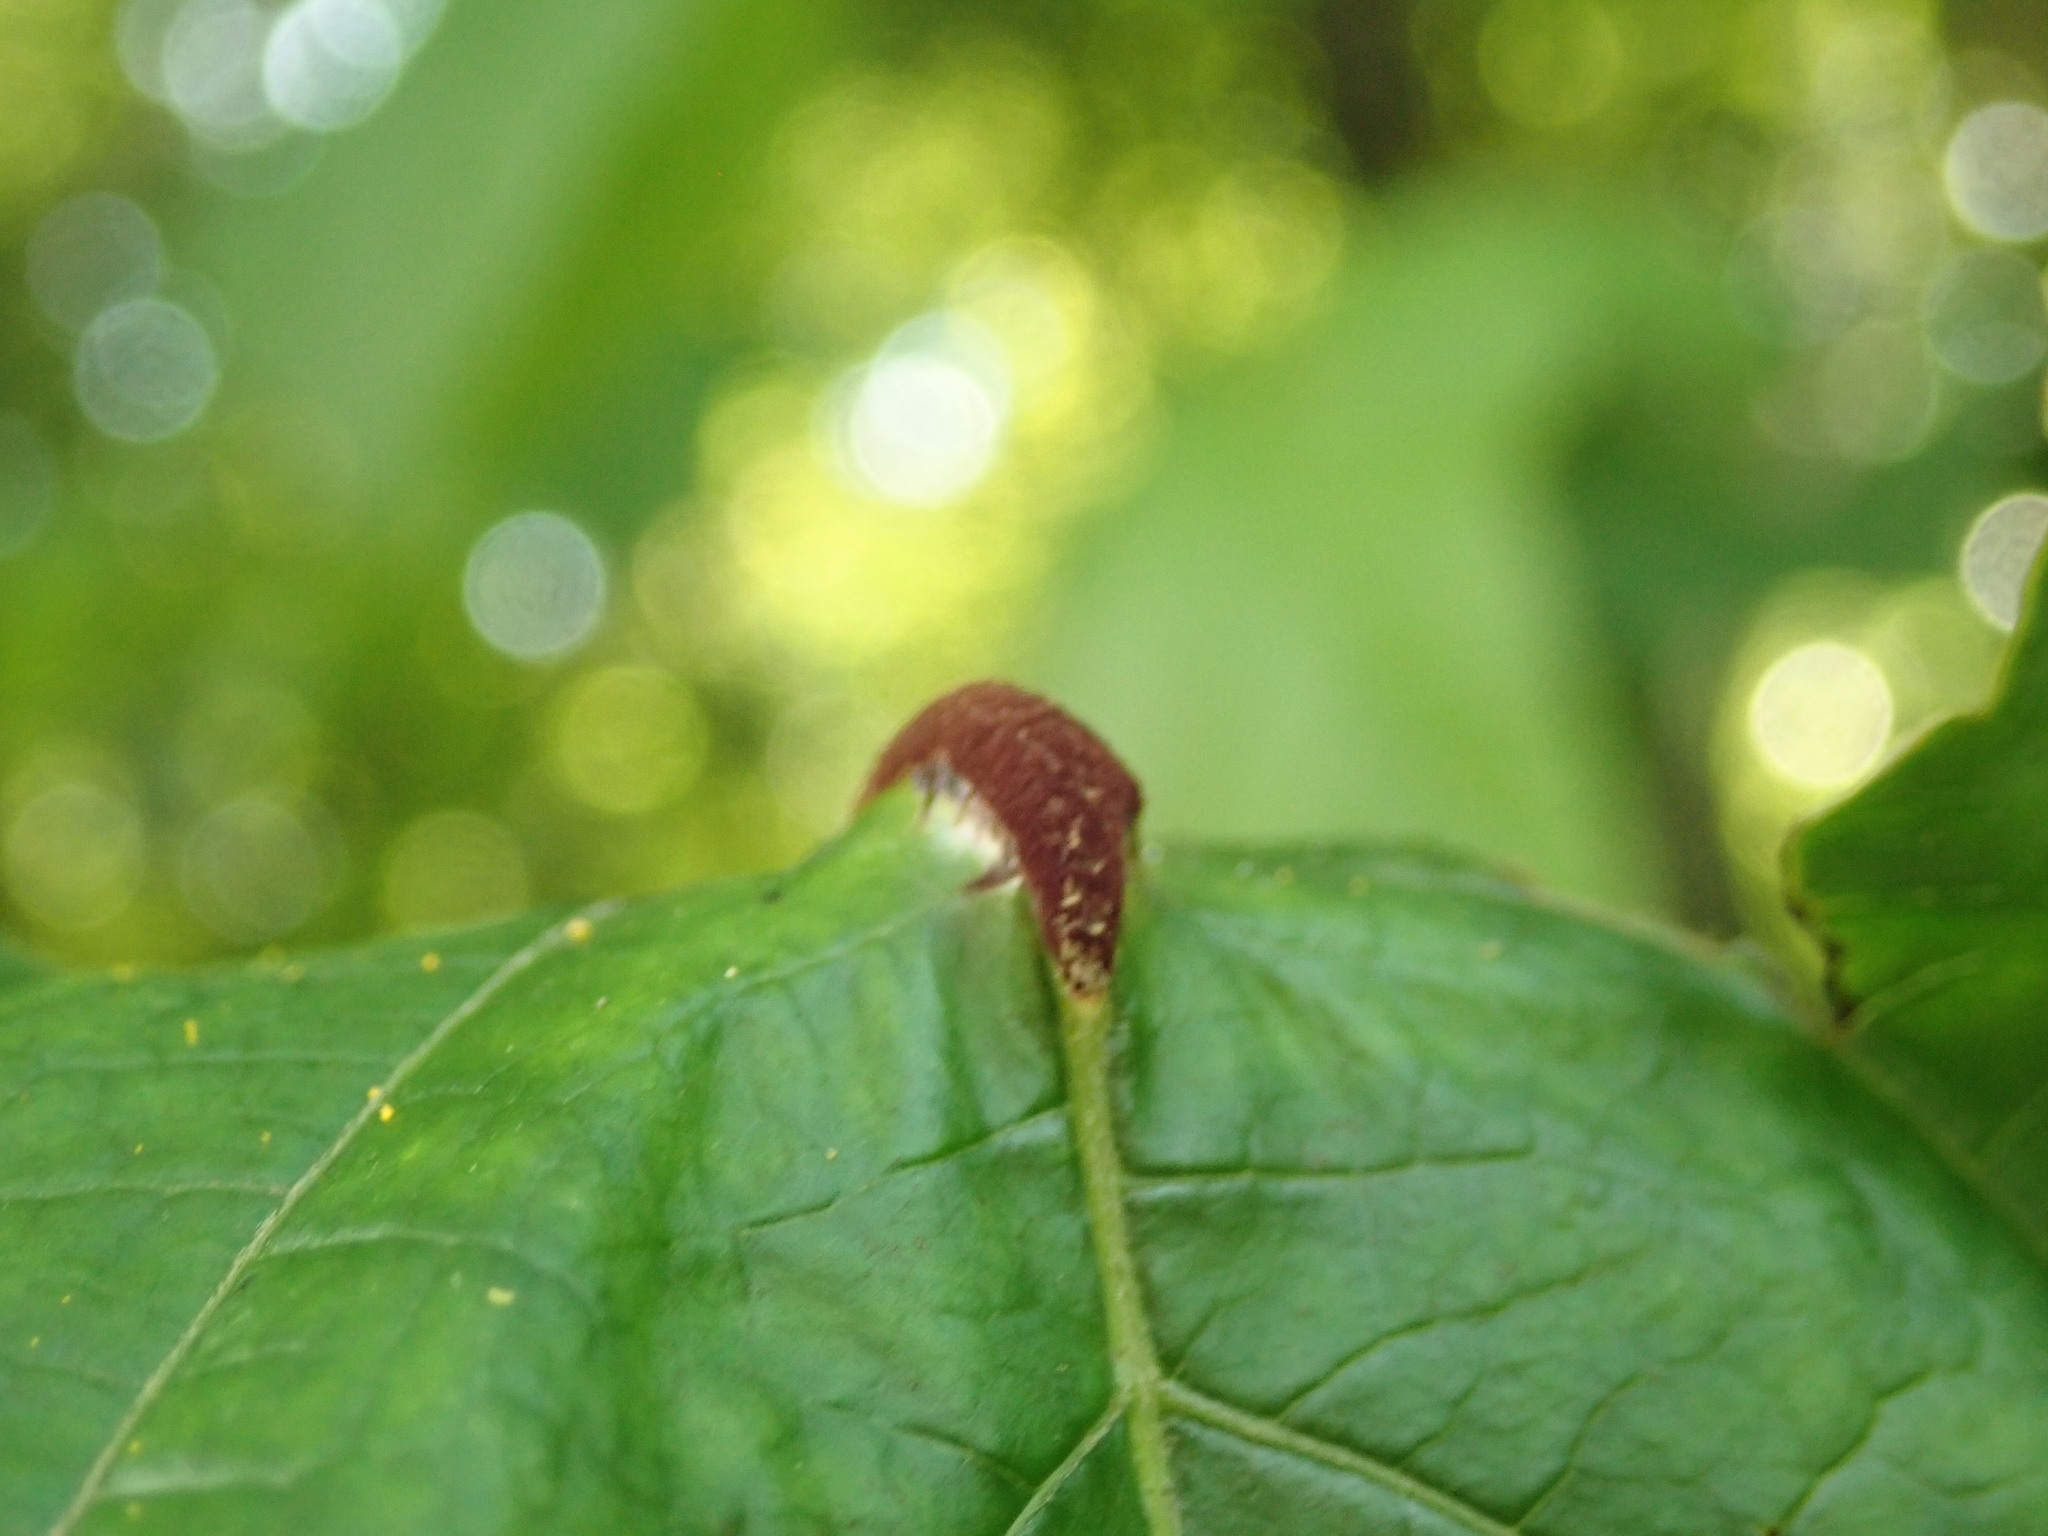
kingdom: Fungi
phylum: Basidiomycota
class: Pucciniomycetes
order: Pucciniales
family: Pileolariaceae
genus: Pileolaria
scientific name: Pileolaria brevipes
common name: Poison ivy rust
